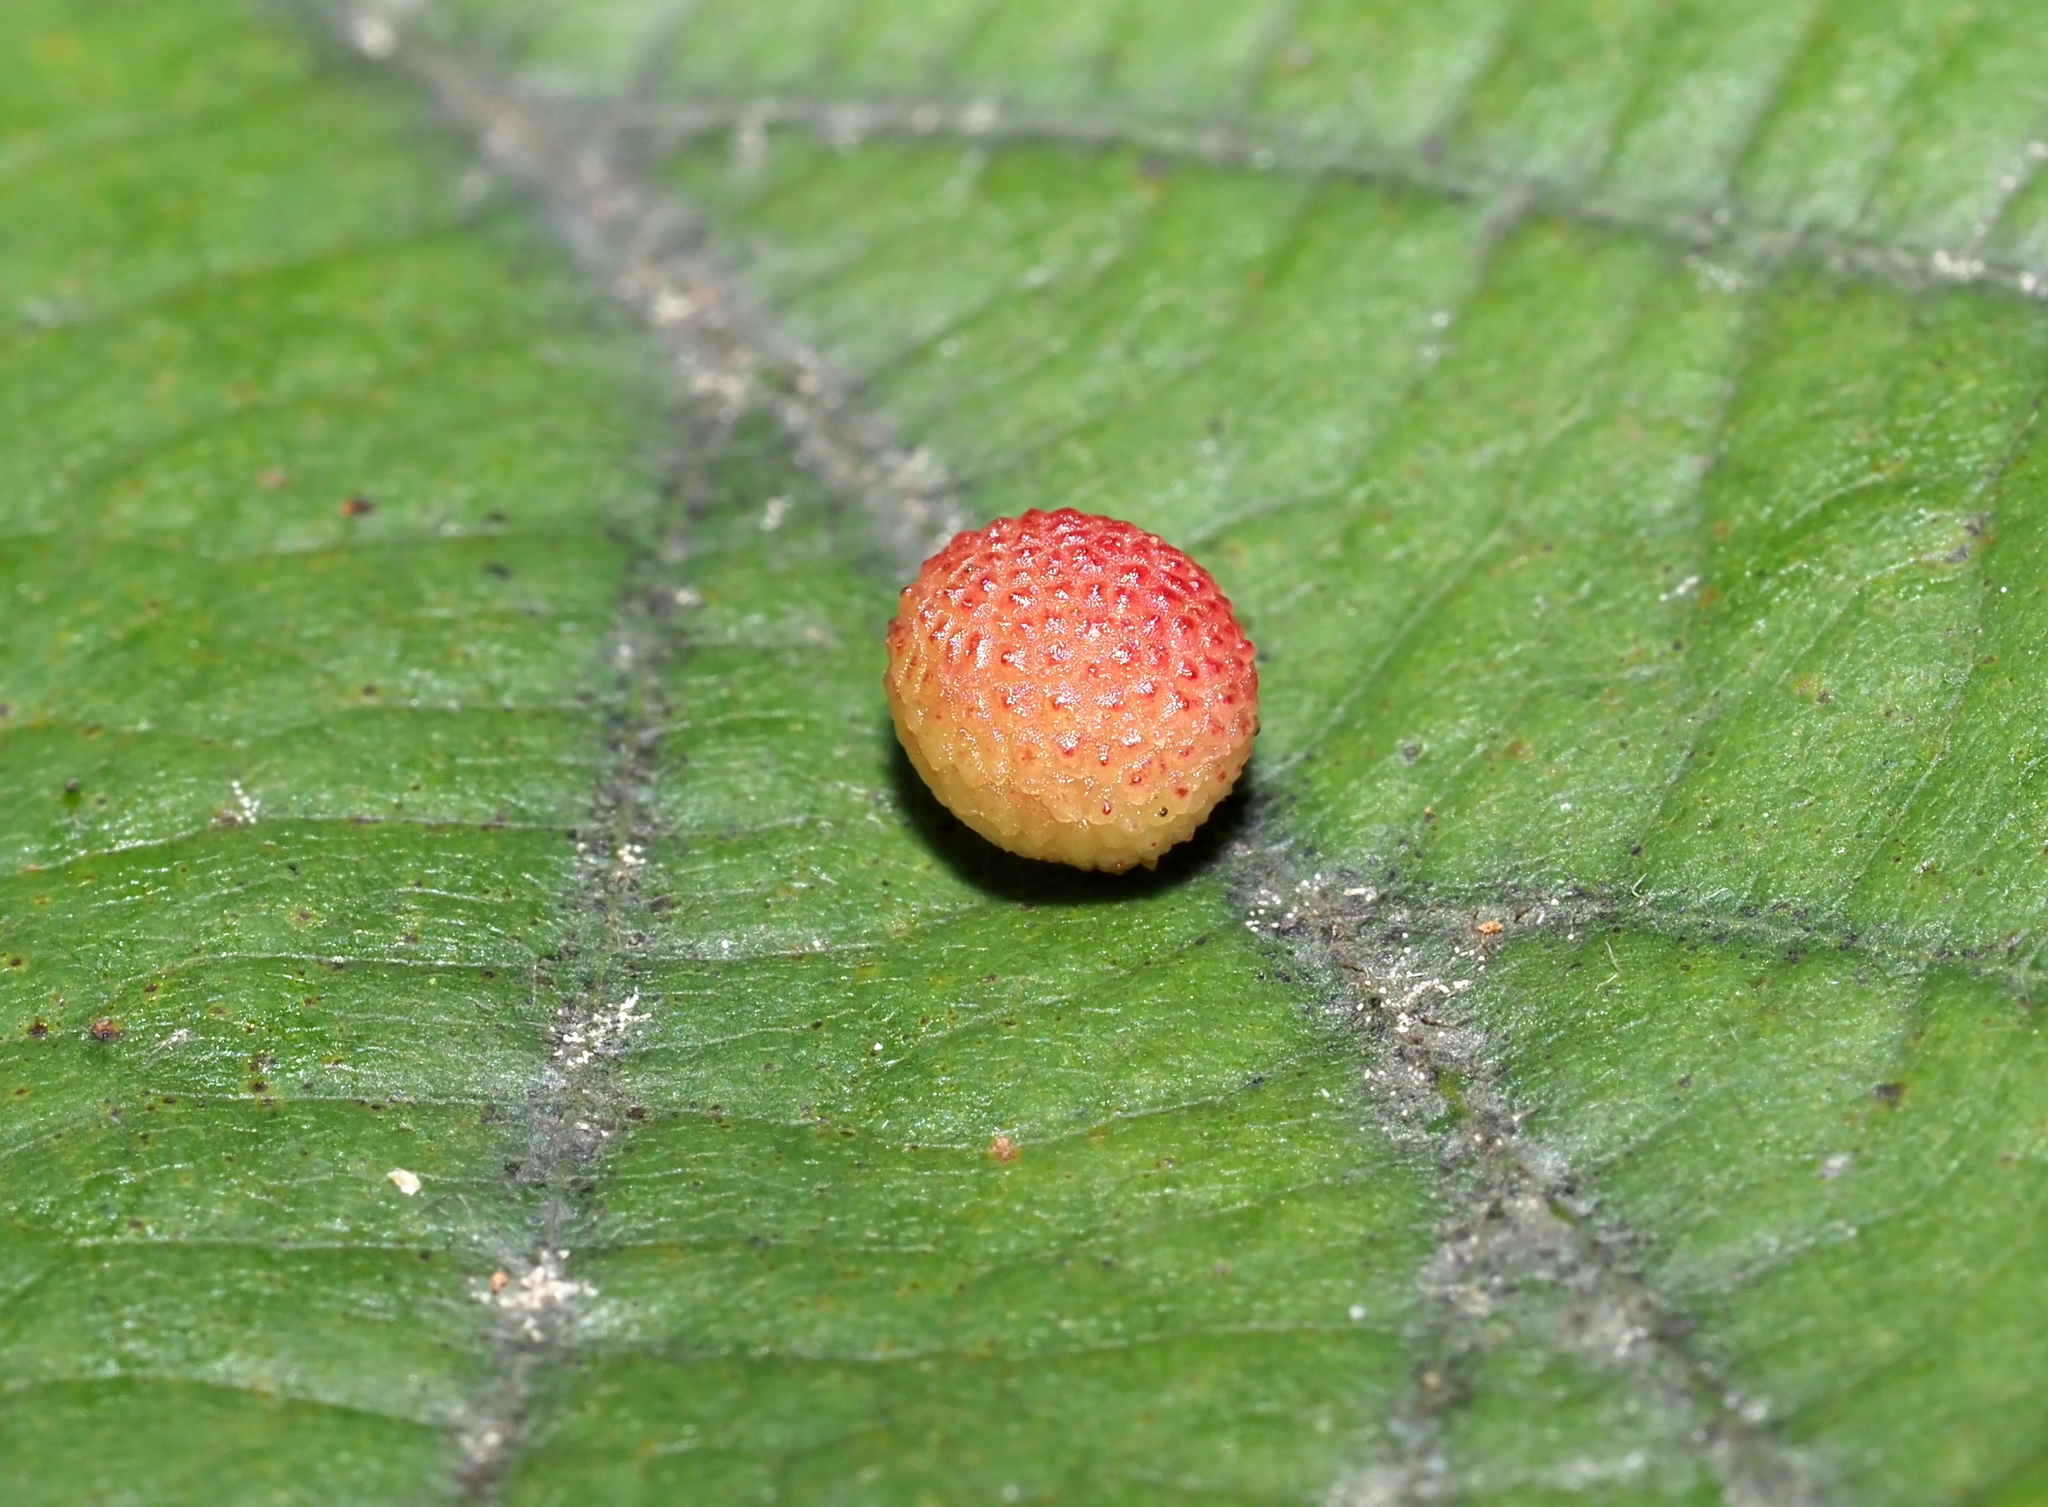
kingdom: Animalia
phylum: Arthropoda
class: Insecta
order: Hymenoptera
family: Cynipidae
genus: Acraspis
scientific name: Acraspis quercushirta
